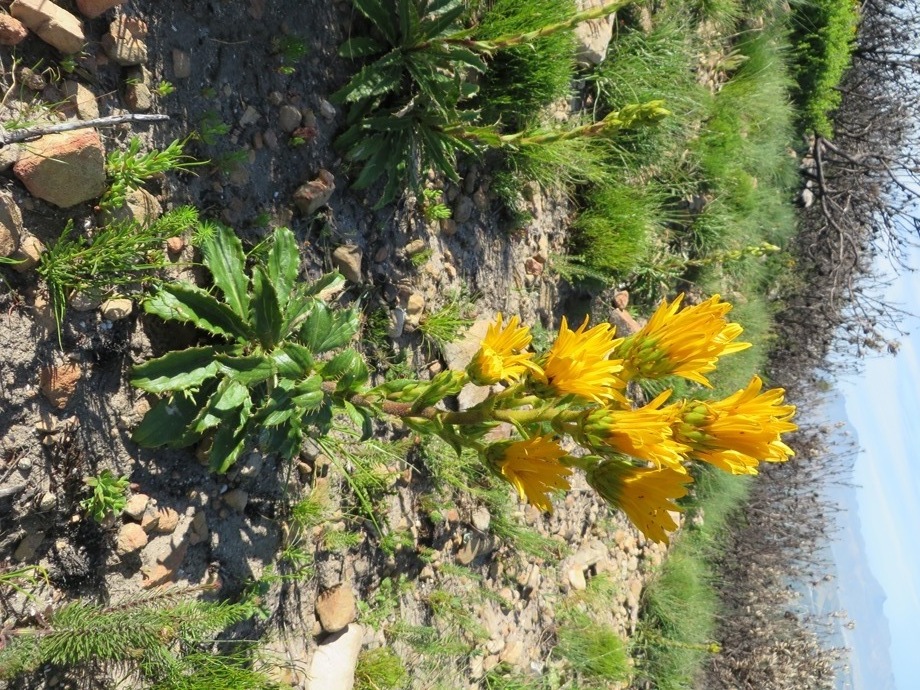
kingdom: Plantae
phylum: Tracheophyta
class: Magnoliopsida
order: Asterales
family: Asteraceae
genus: Berkheya
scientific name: Berkheya herbacea
